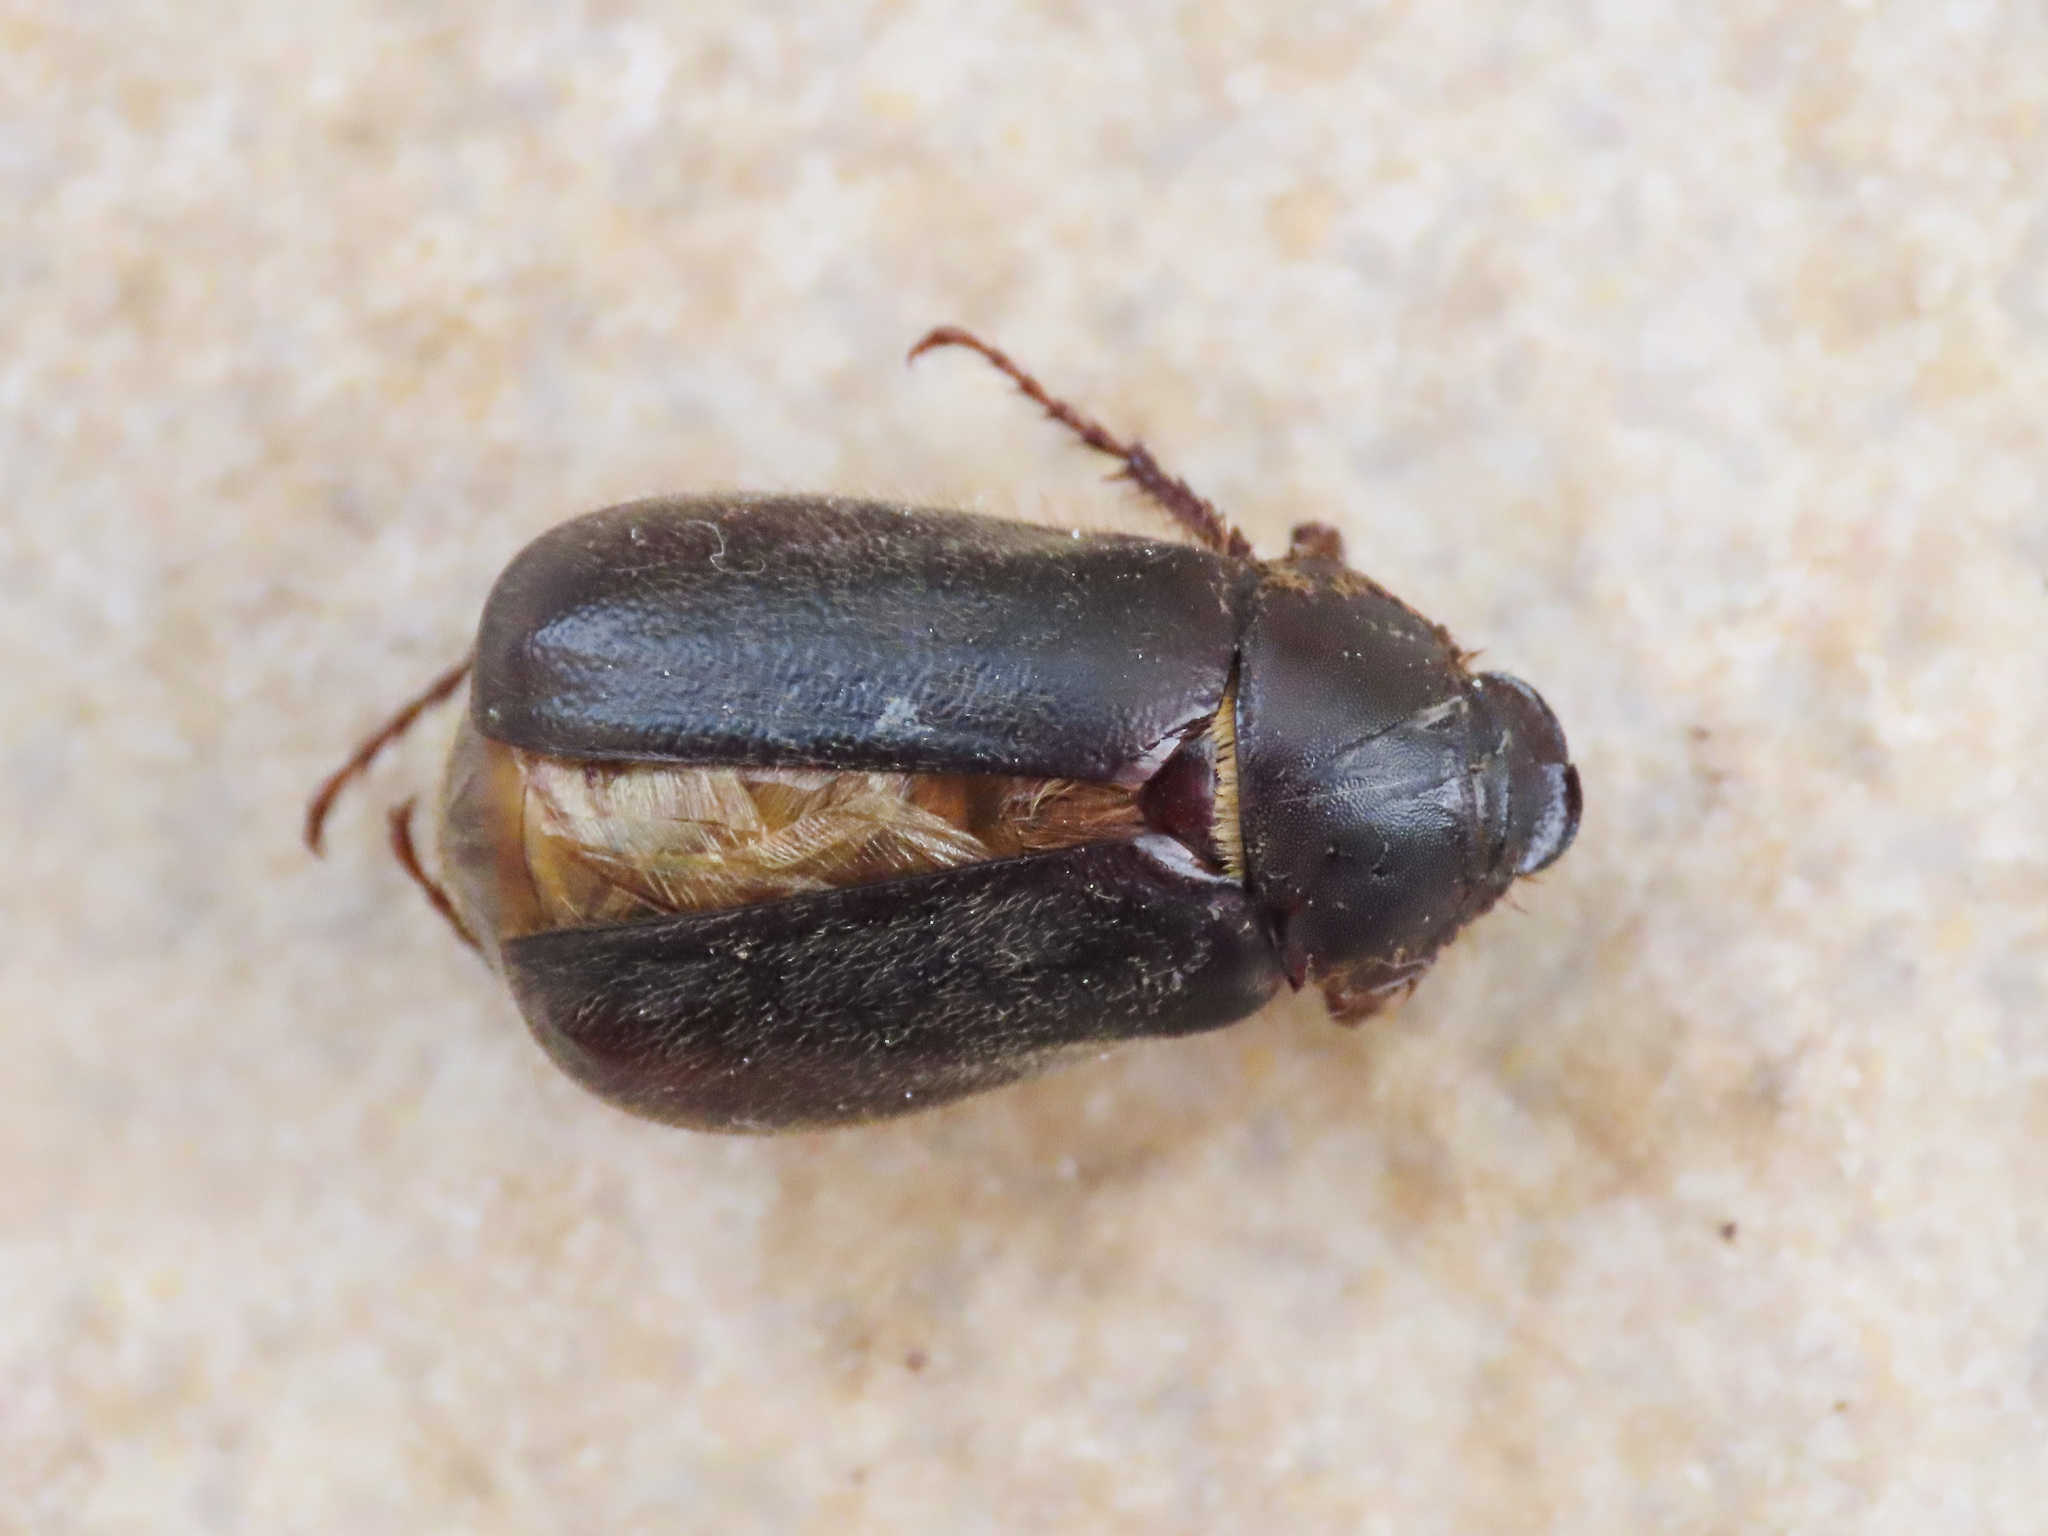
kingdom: Animalia
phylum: Arthropoda
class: Insecta
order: Coleoptera
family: Scarabaeidae
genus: Aplidia
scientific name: Aplidia
